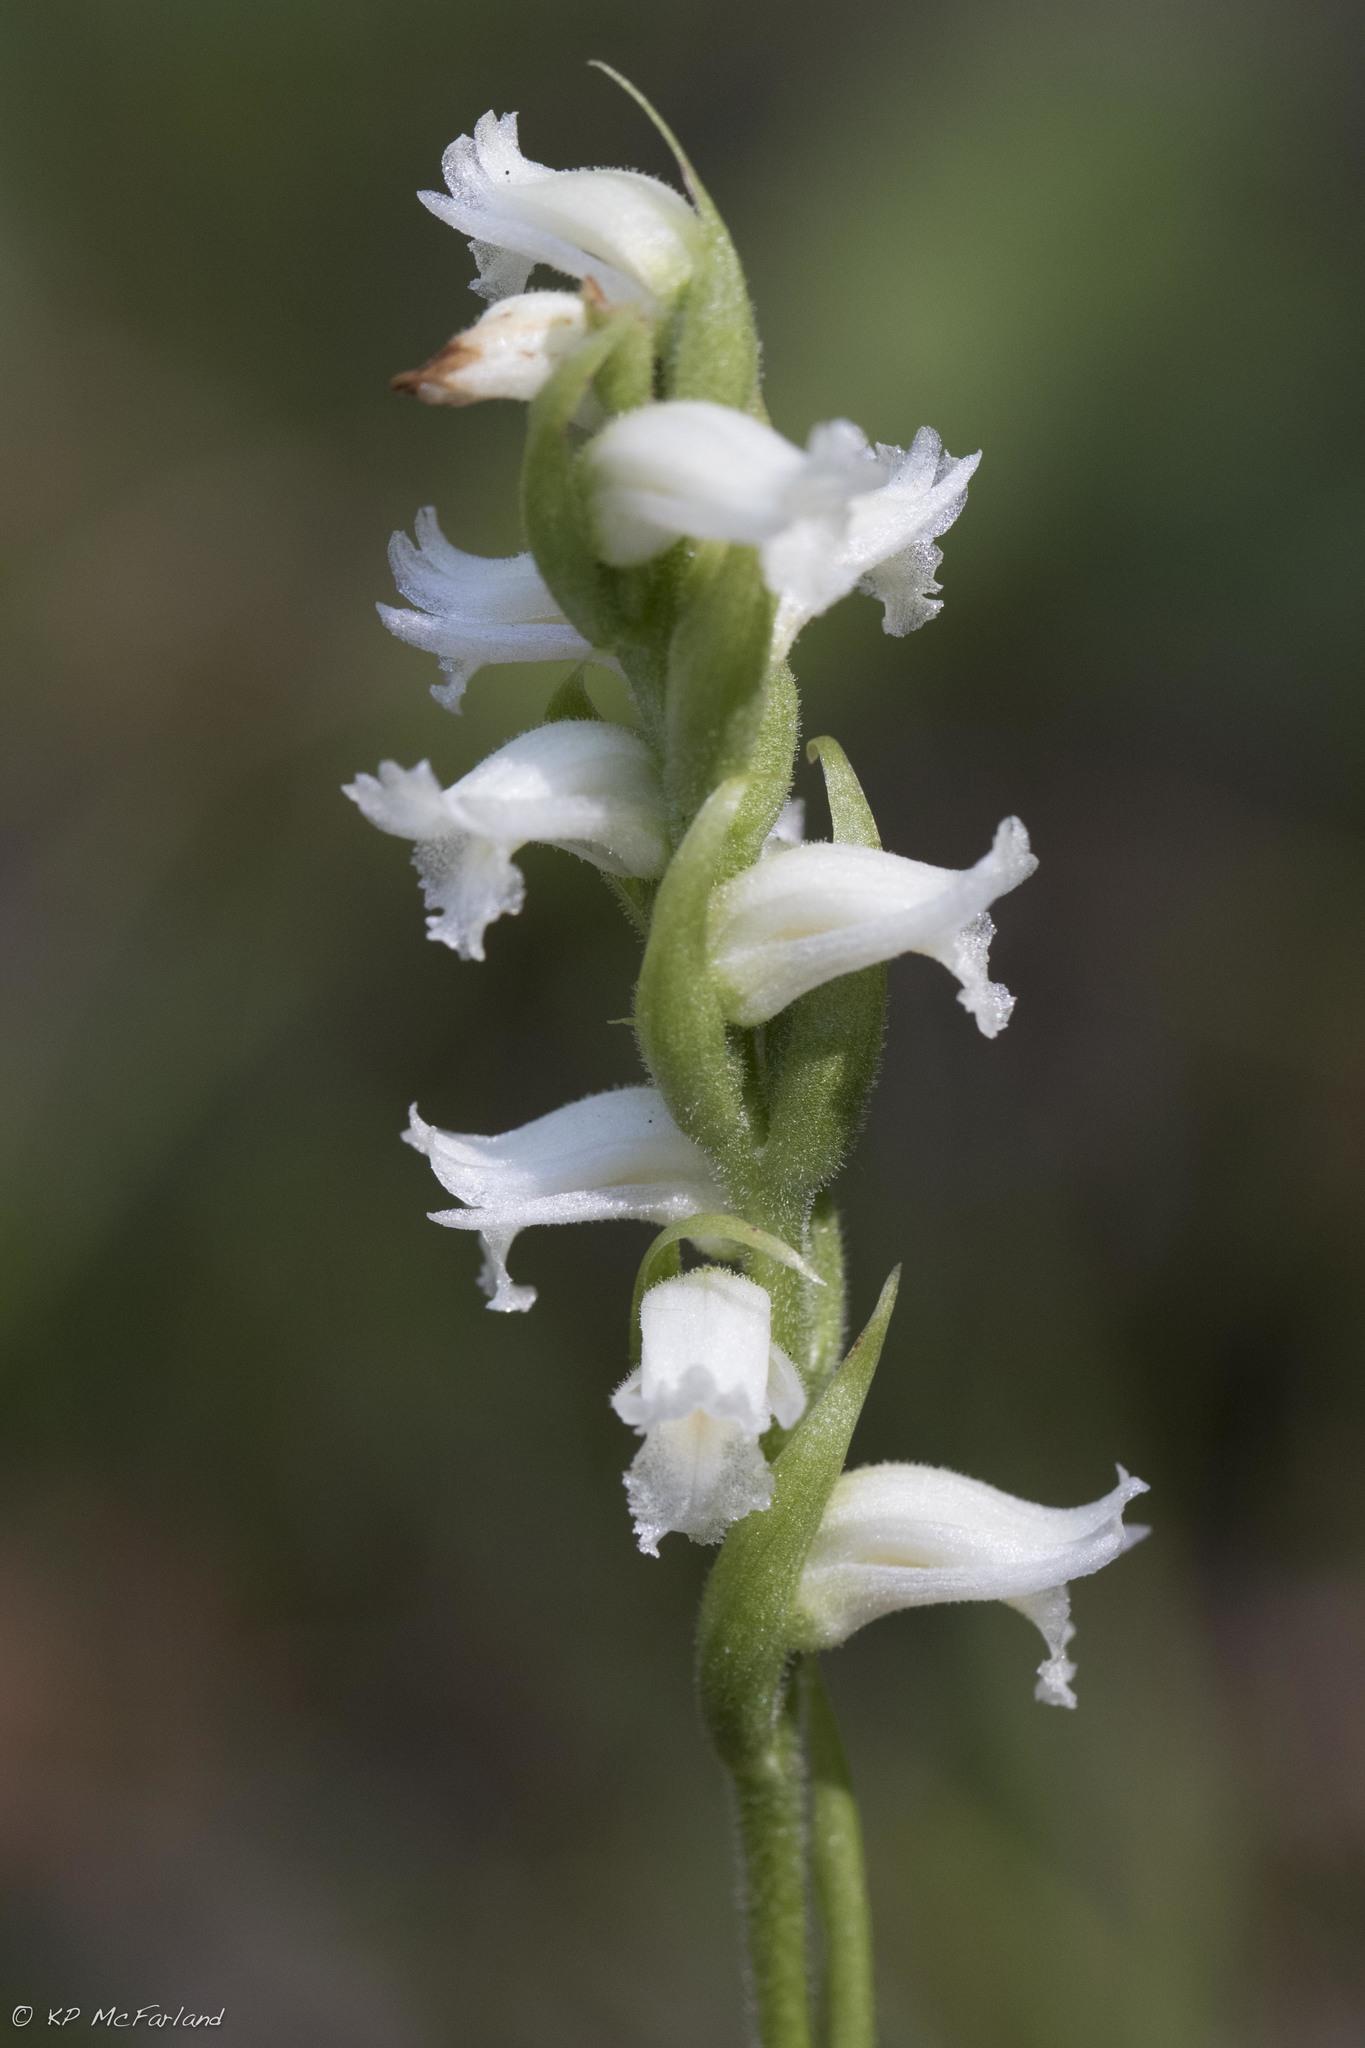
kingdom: Plantae
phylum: Tracheophyta
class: Liliopsida
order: Asparagales
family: Orchidaceae
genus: Spiranthes
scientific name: Spiranthes ochroleuca
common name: Yellow ladies'-tresses
